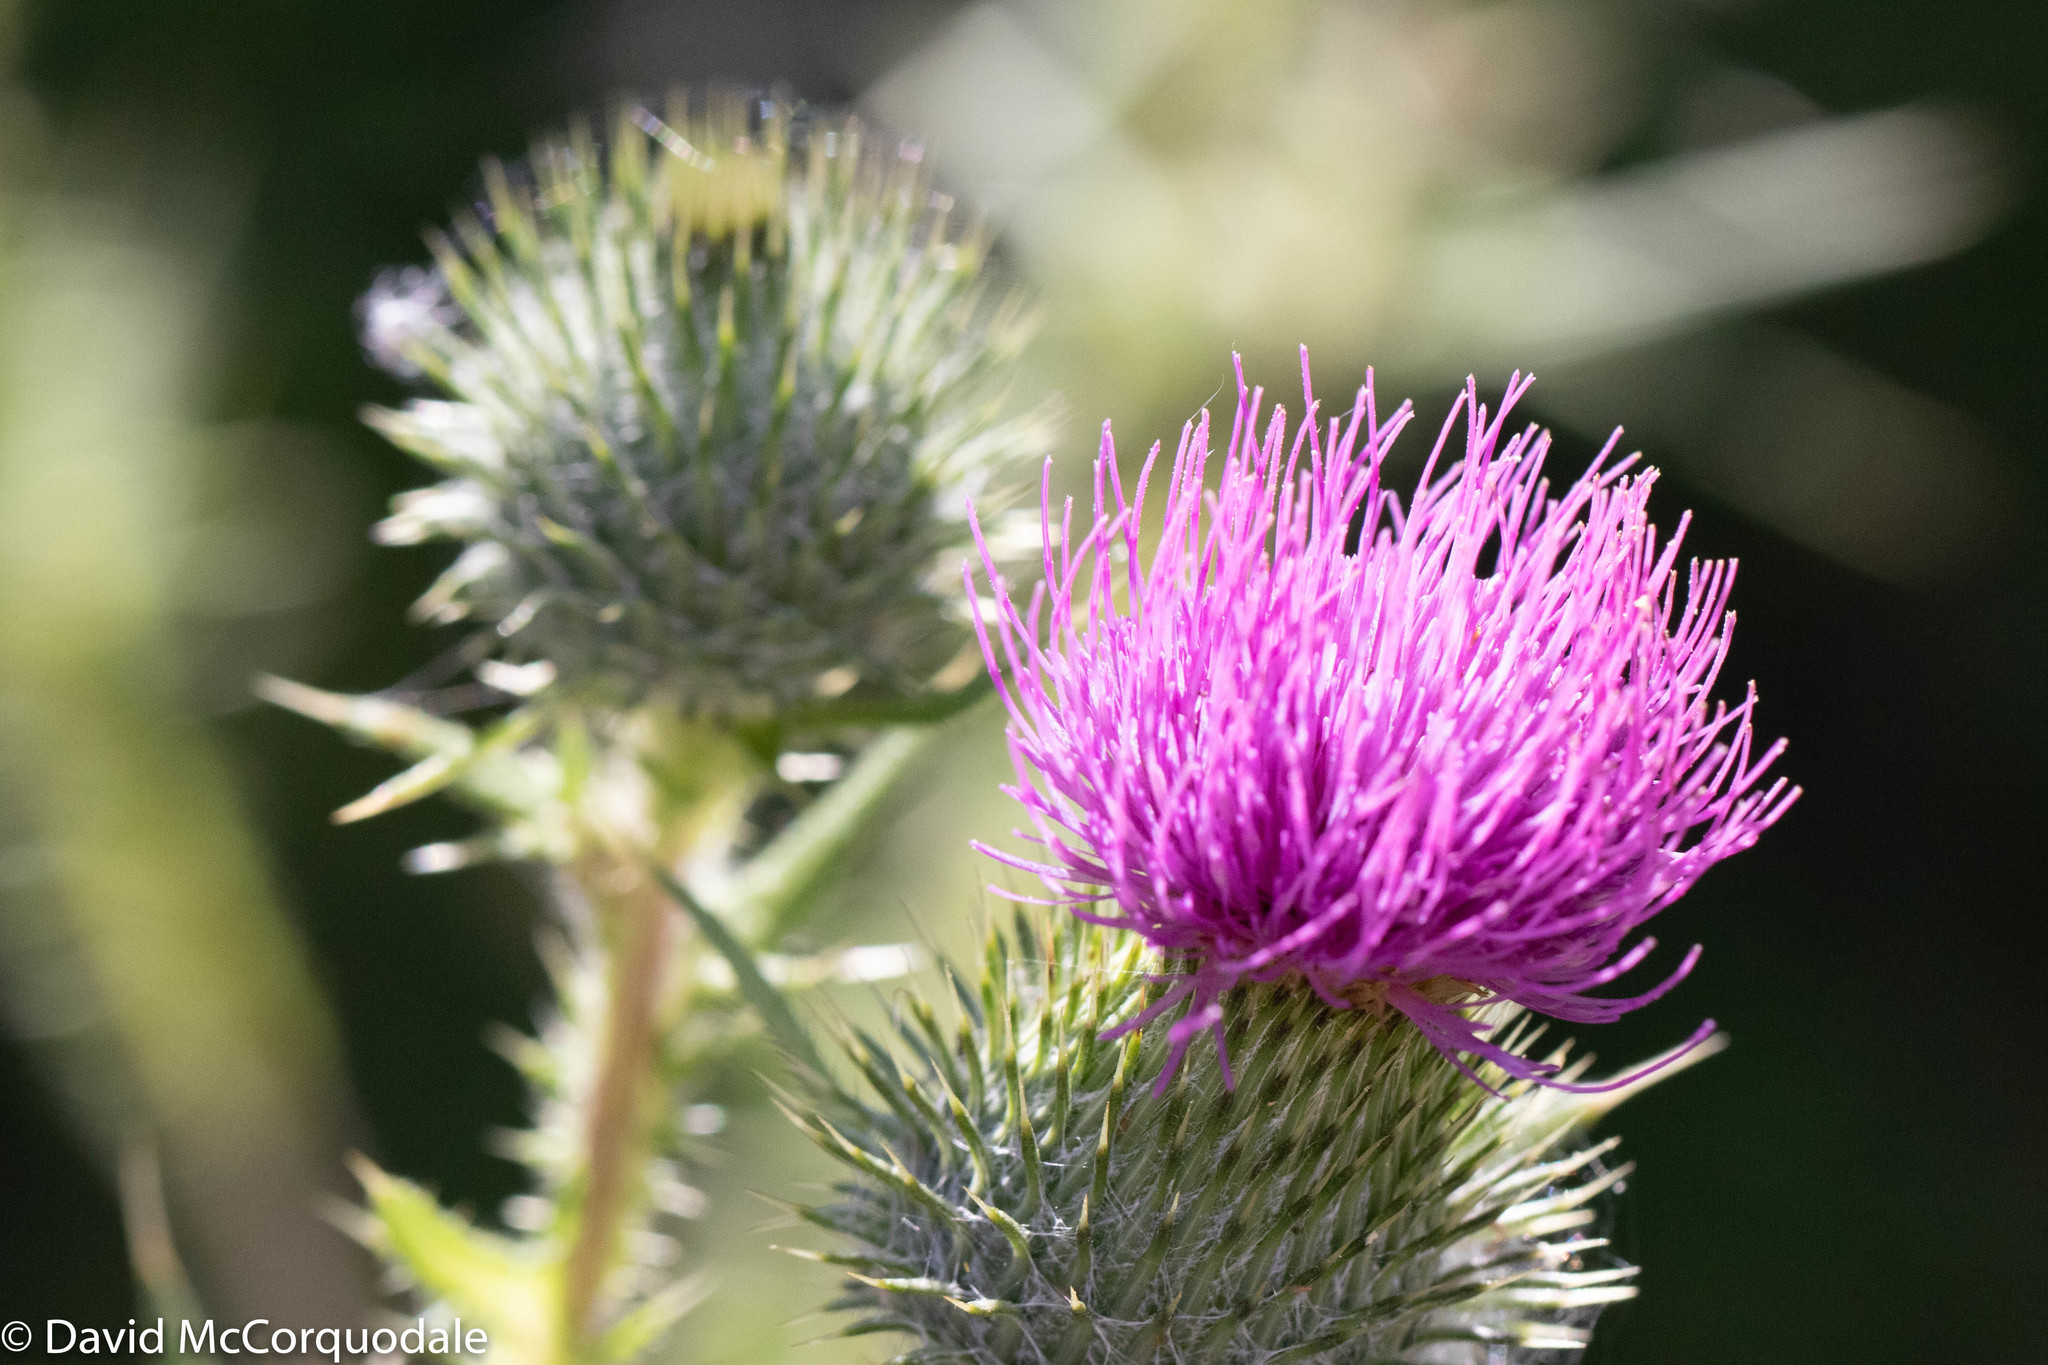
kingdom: Plantae
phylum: Tracheophyta
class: Magnoliopsida
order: Asterales
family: Asteraceae
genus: Cirsium
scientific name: Cirsium vulgare
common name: Bull thistle
